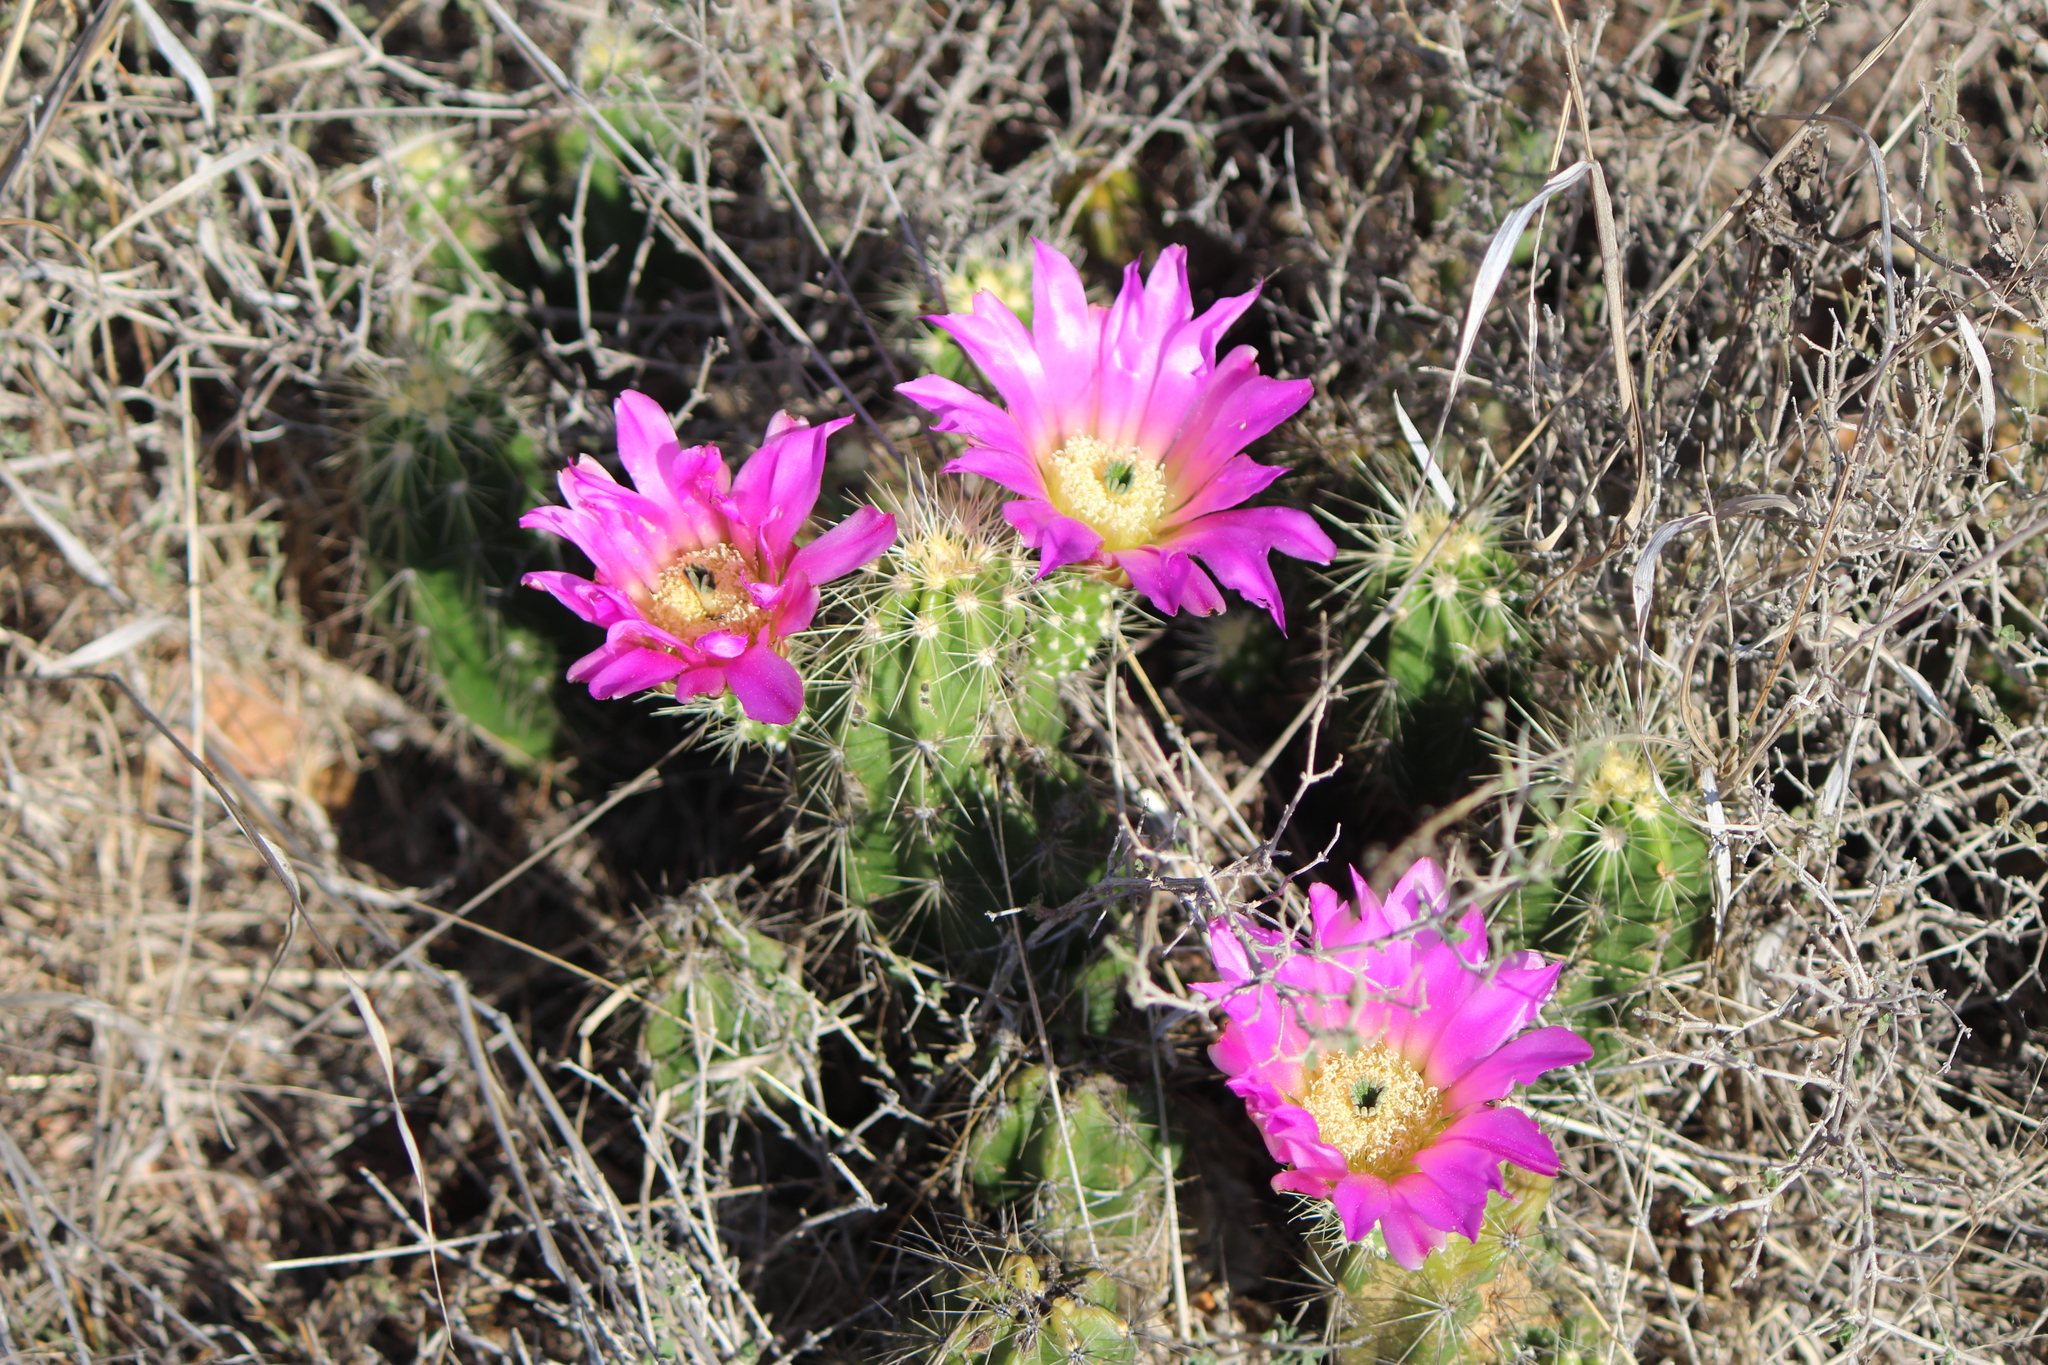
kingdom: Plantae
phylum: Tracheophyta
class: Magnoliopsida
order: Caryophyllales
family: Cactaceae
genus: Echinocereus
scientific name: Echinocereus cinerascens
